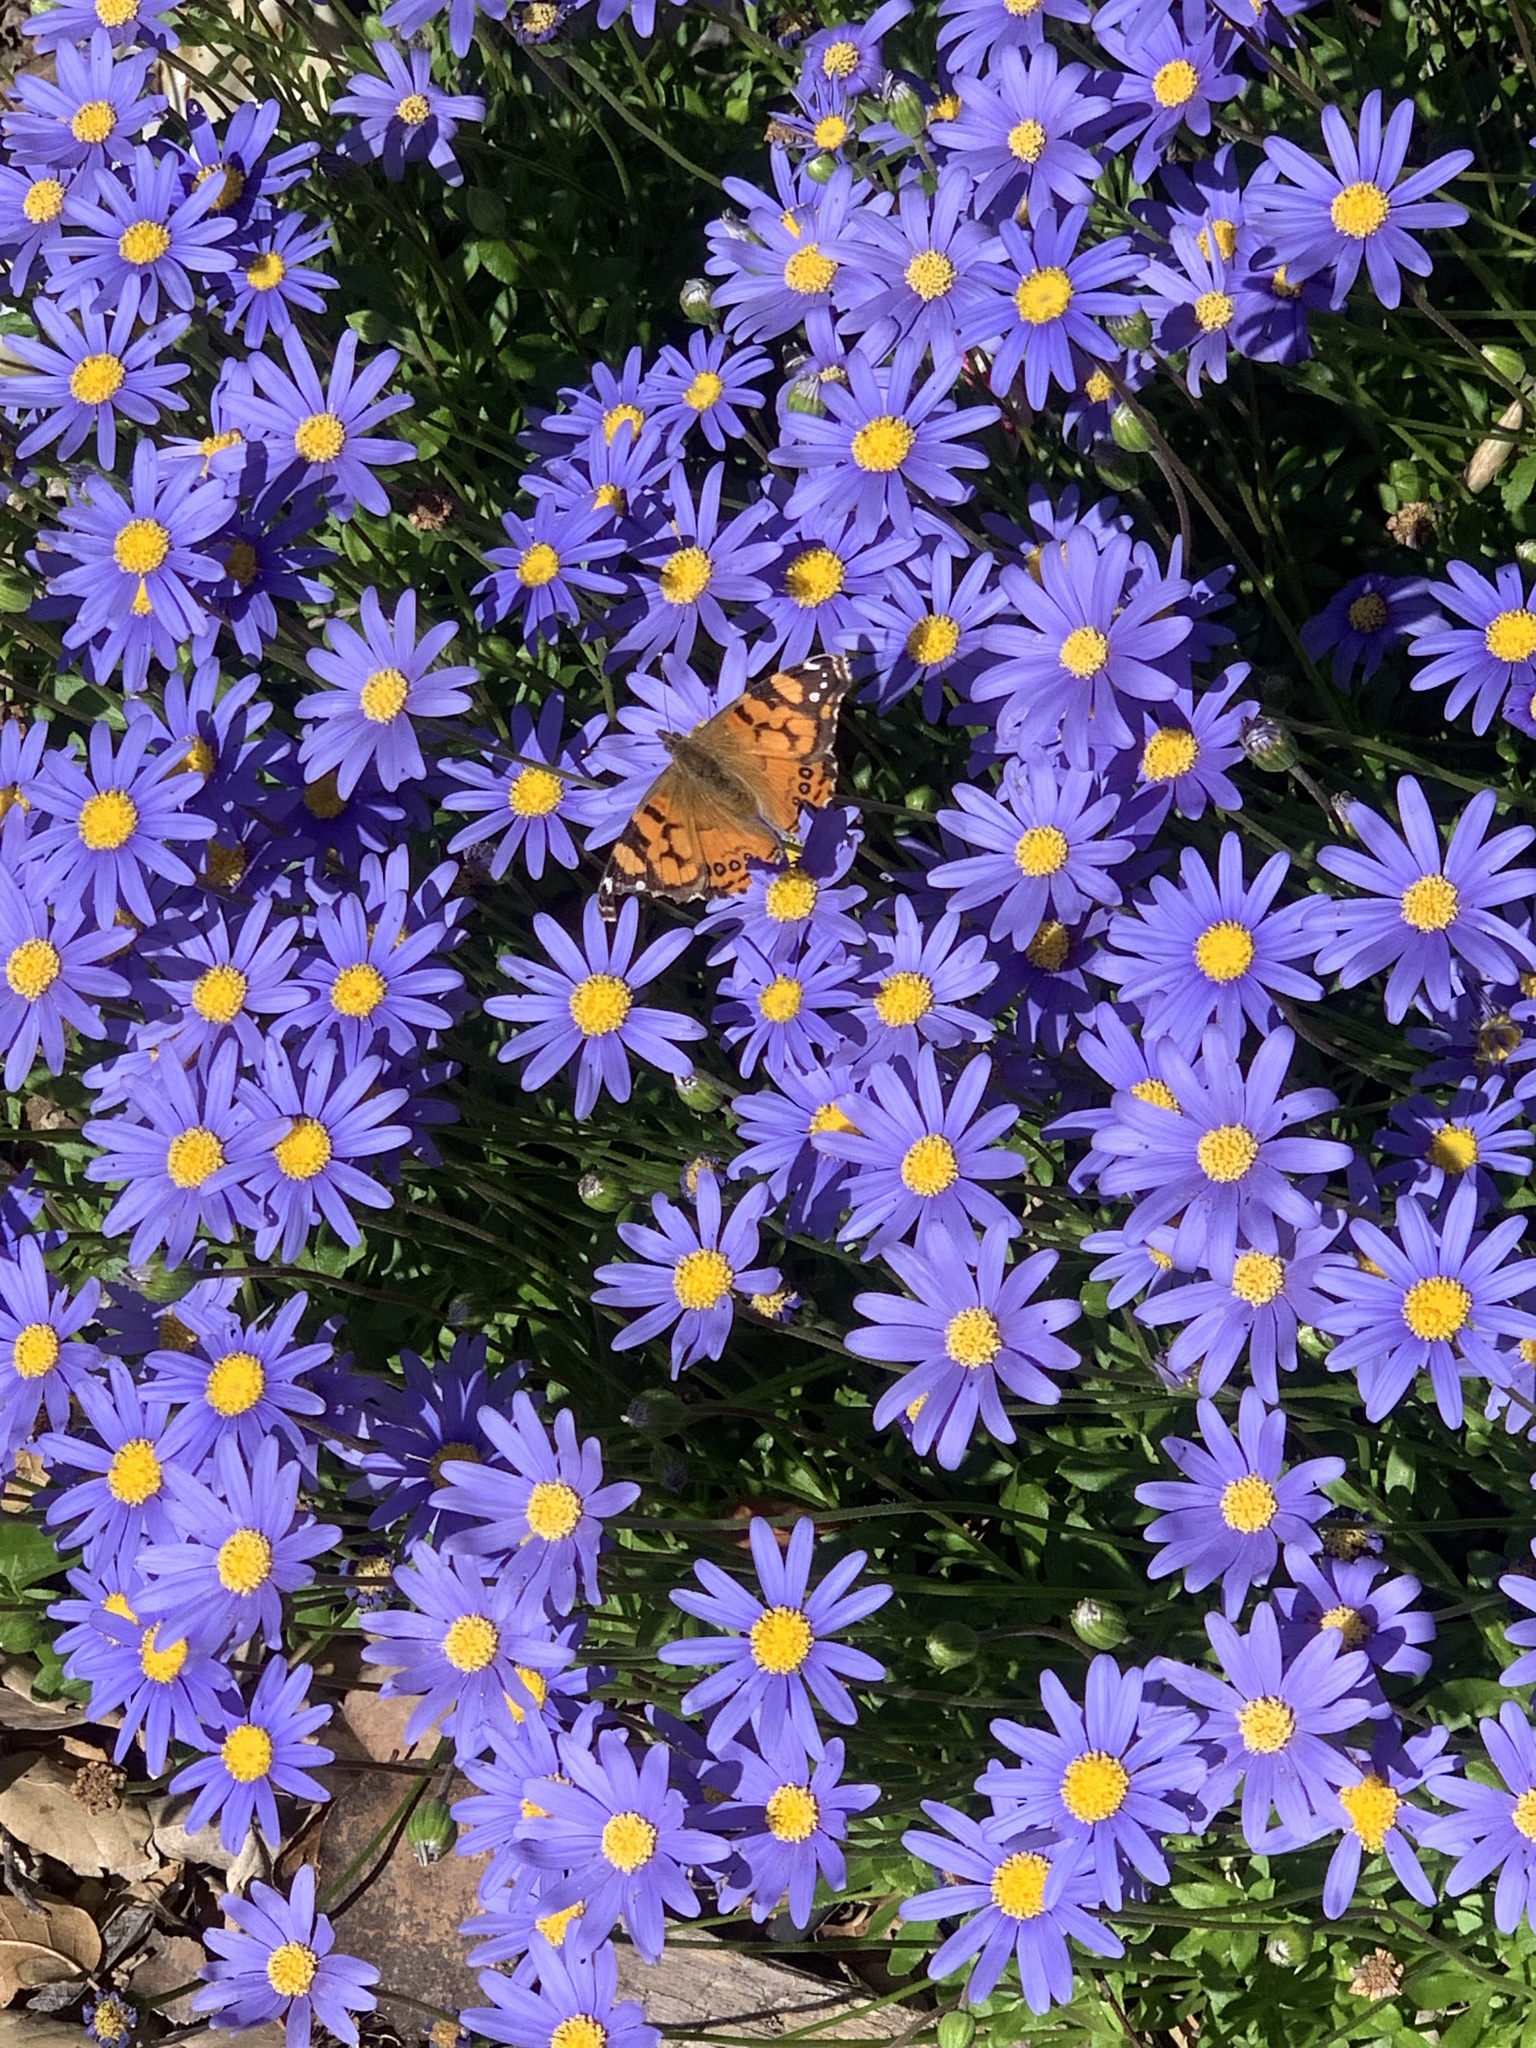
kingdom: Animalia
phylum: Arthropoda
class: Insecta
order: Lepidoptera
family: Nymphalidae
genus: Vanessa
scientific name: Vanessa annabella
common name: West coast lady
